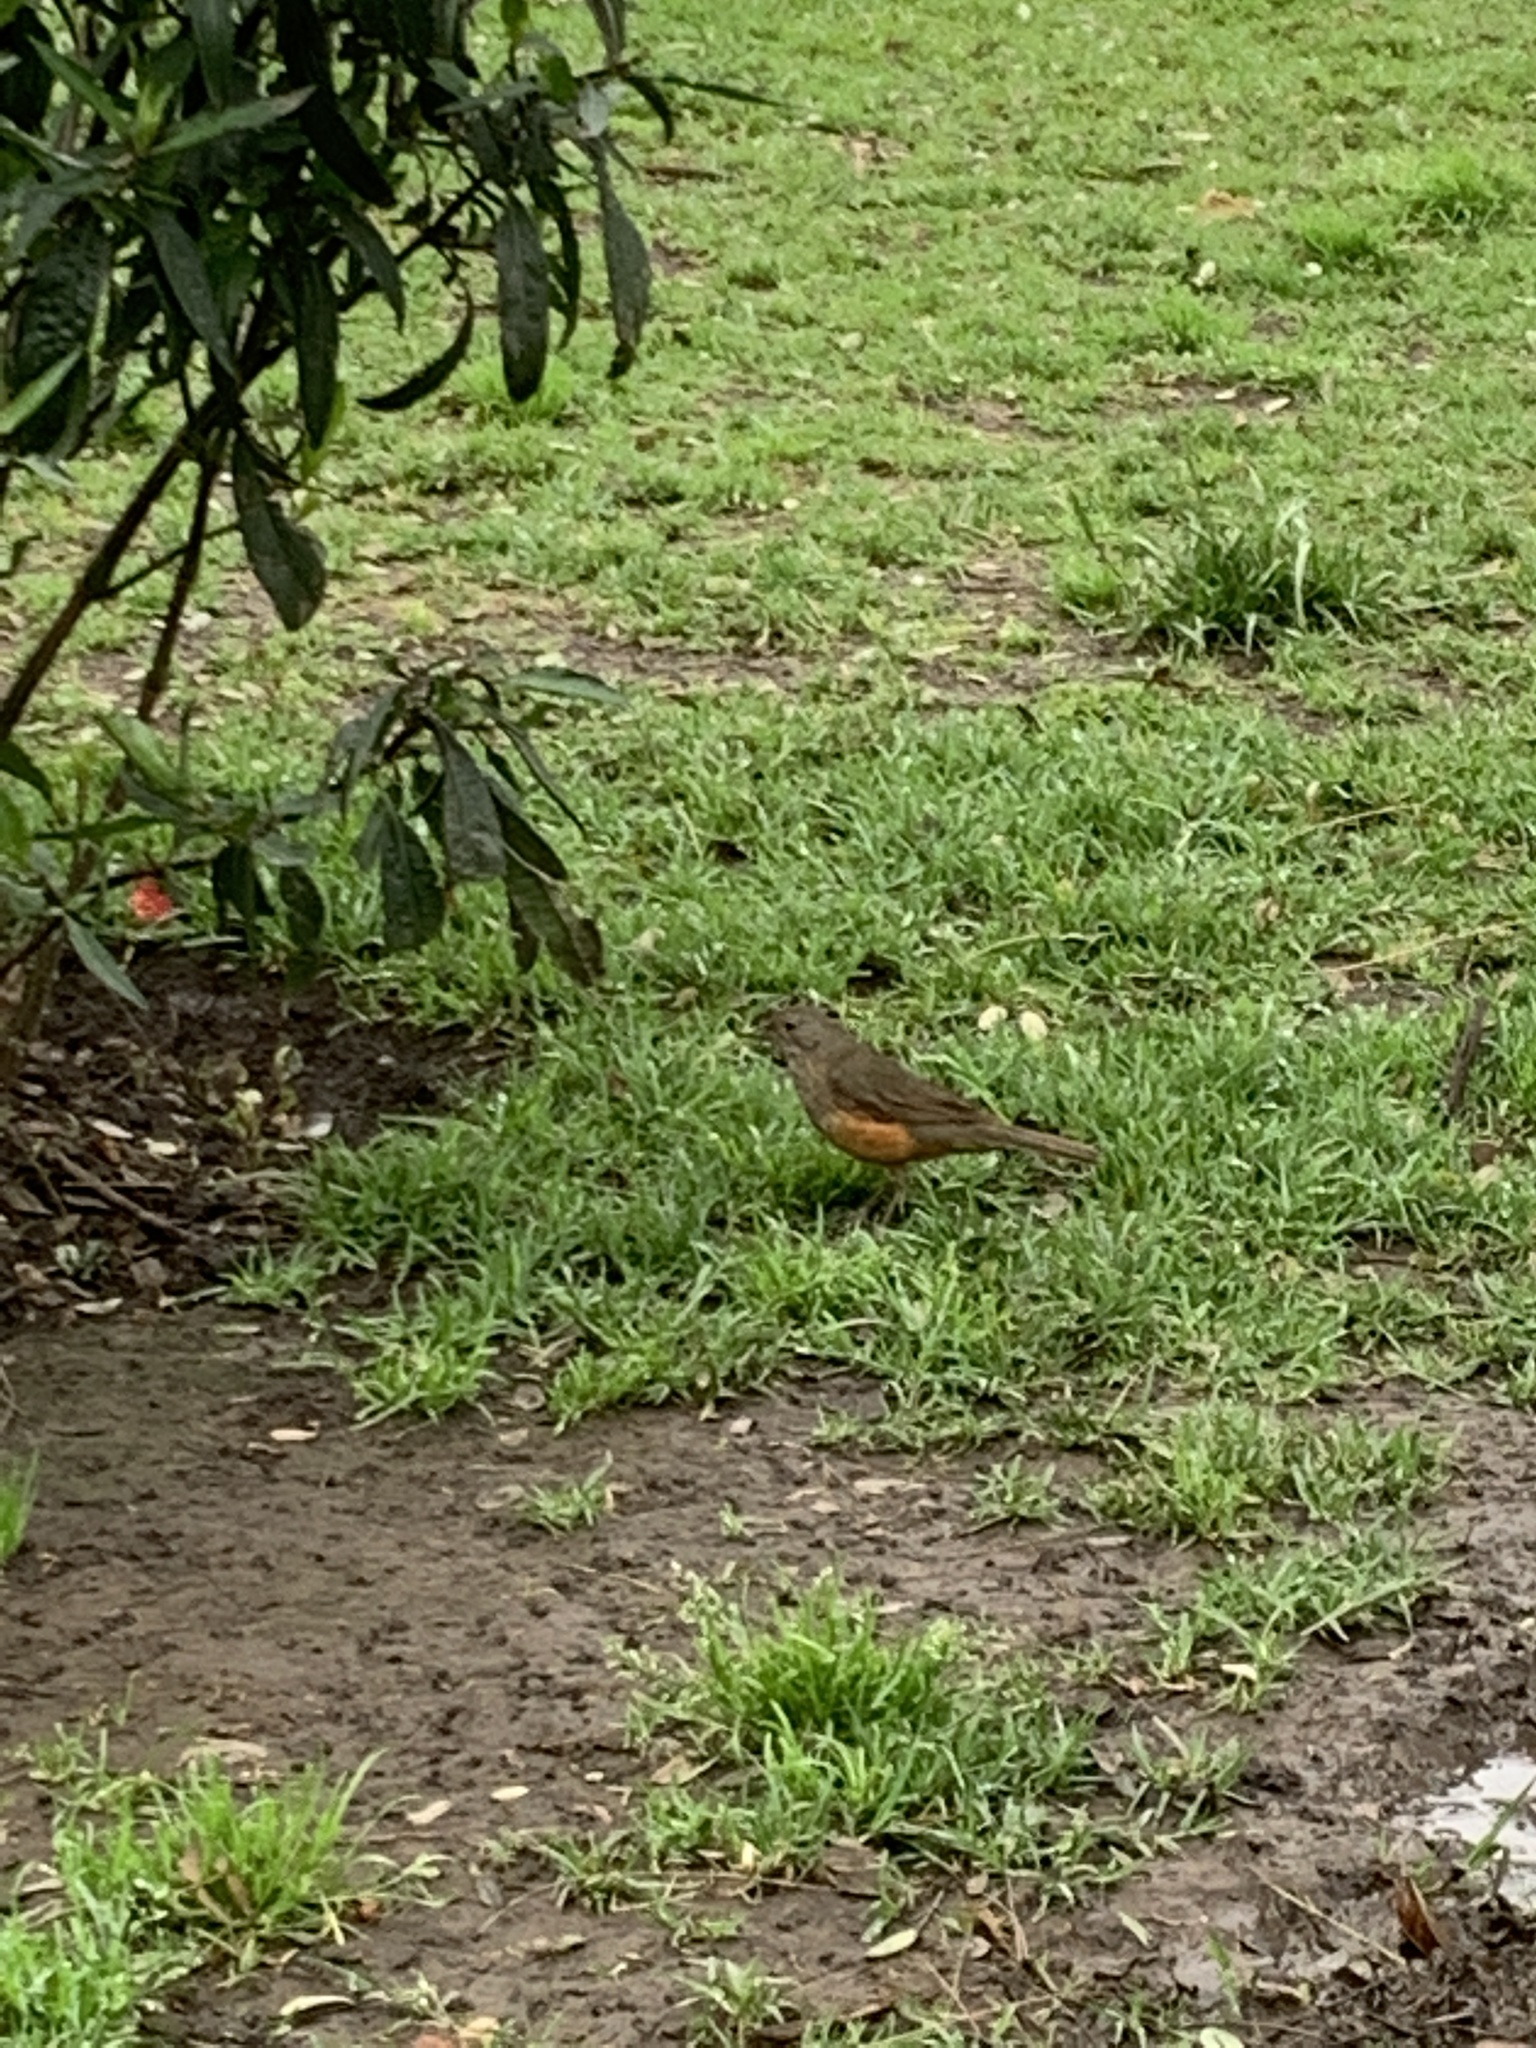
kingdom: Animalia
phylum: Chordata
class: Aves
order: Passeriformes
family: Turdidae
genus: Turdus
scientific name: Turdus rufiventris
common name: Rufous-bellied thrush
